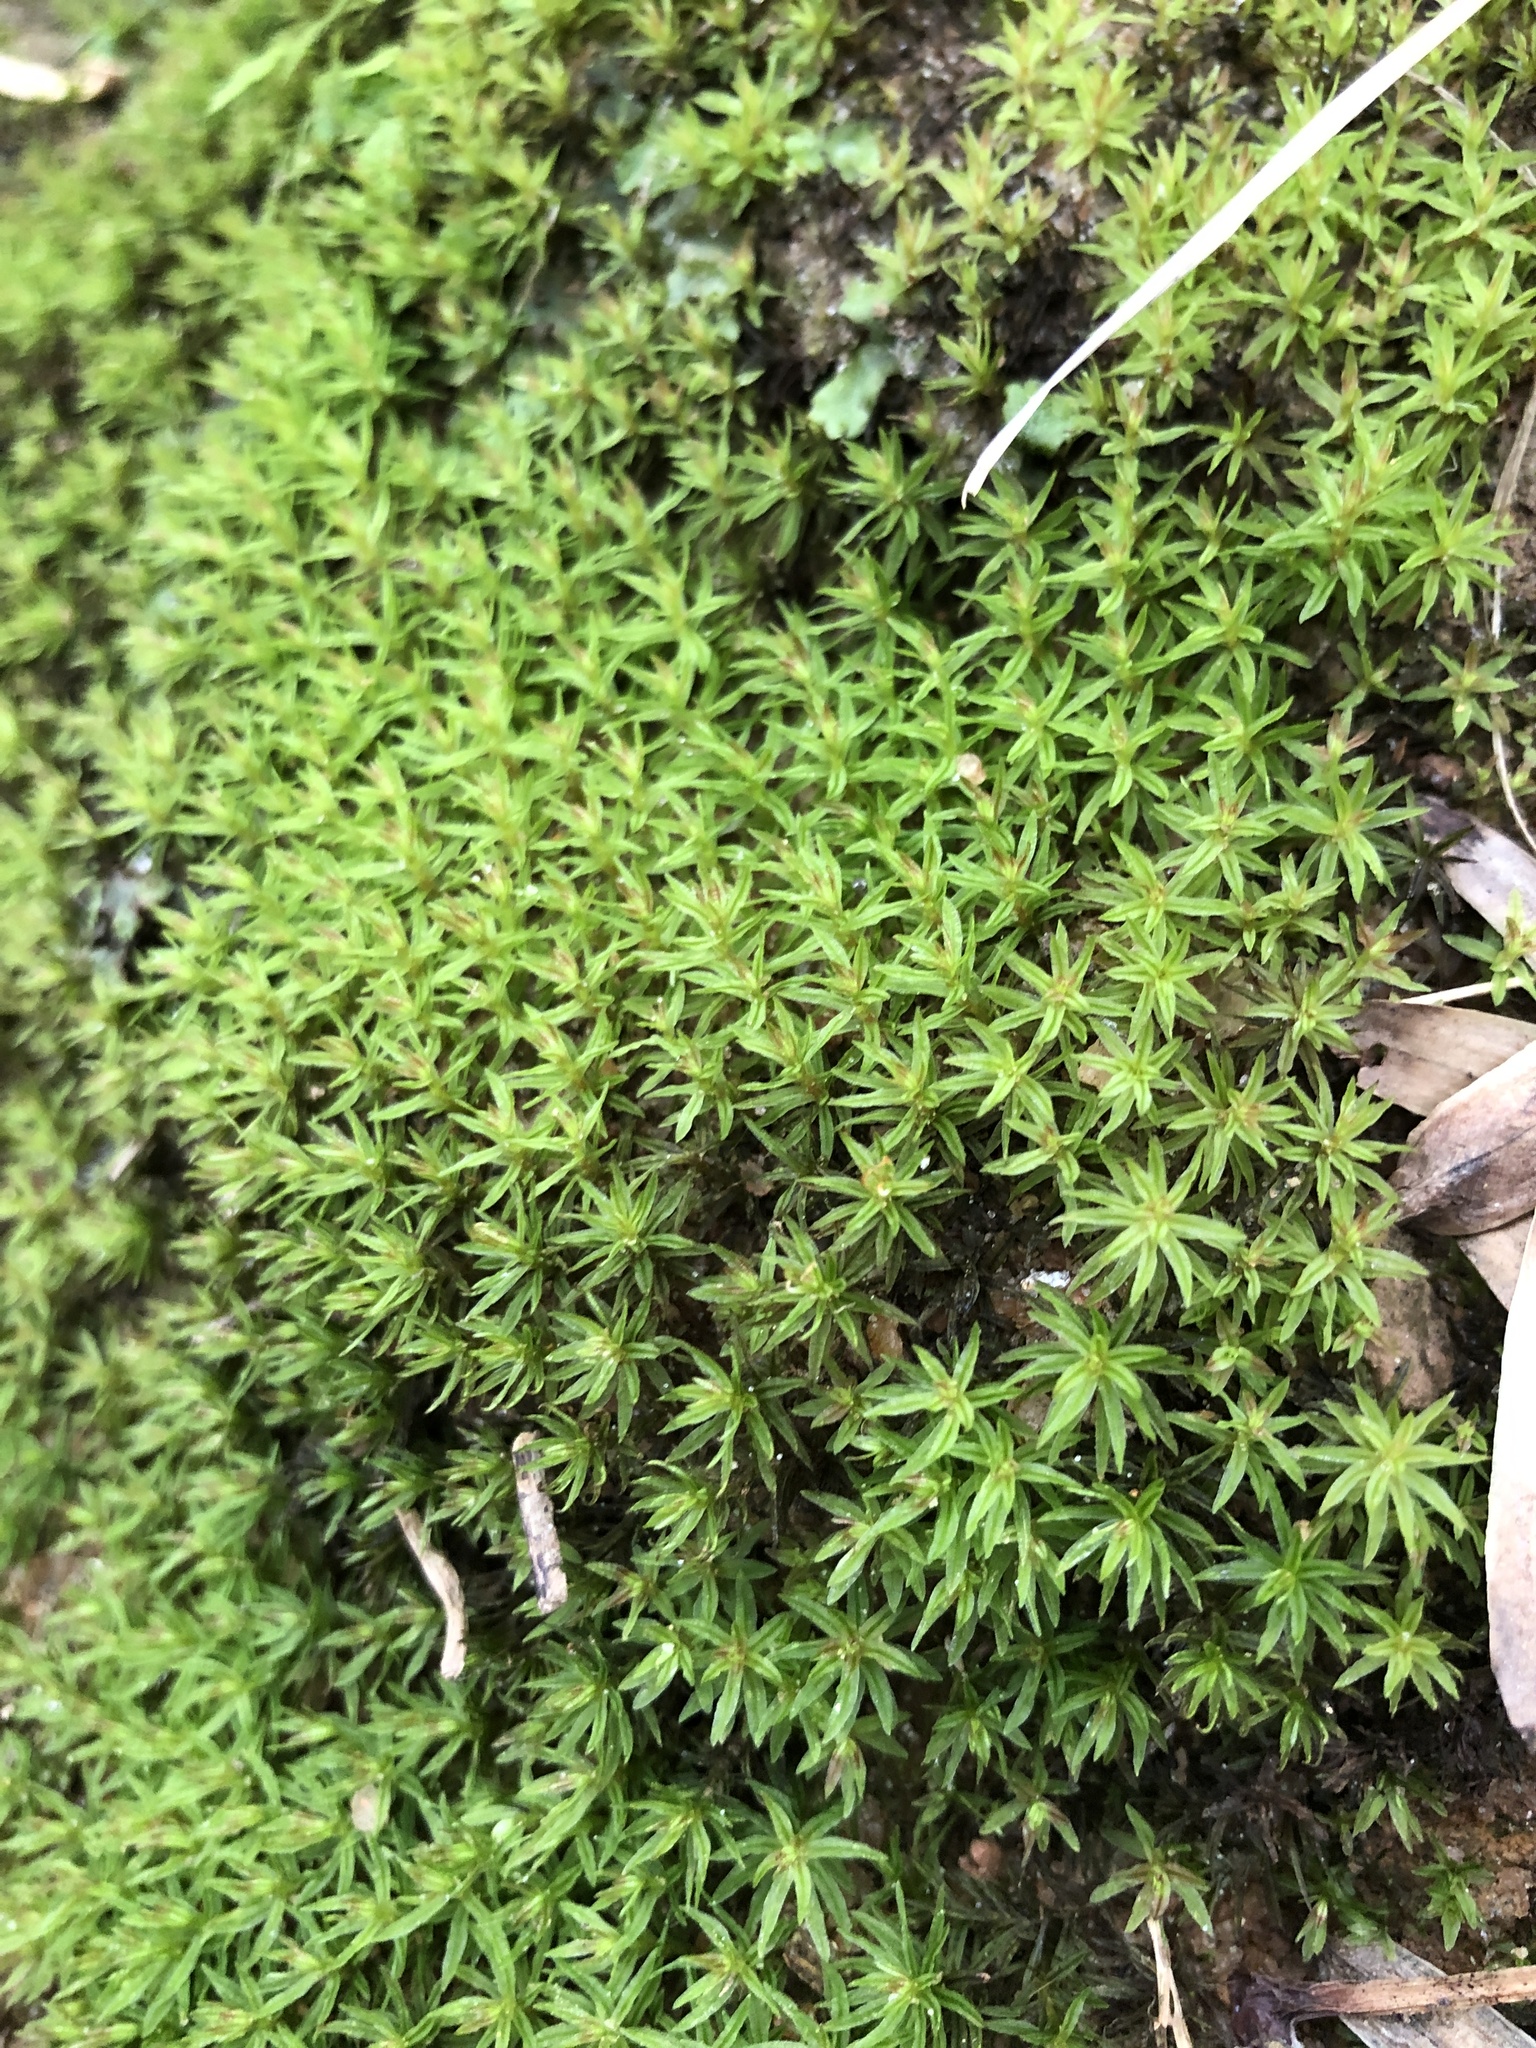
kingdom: Plantae
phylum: Bryophyta
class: Polytrichopsida
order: Polytrichales
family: Polytrichaceae
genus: Atrichum
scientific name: Atrichum angustatum
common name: Lesser smoothcap
